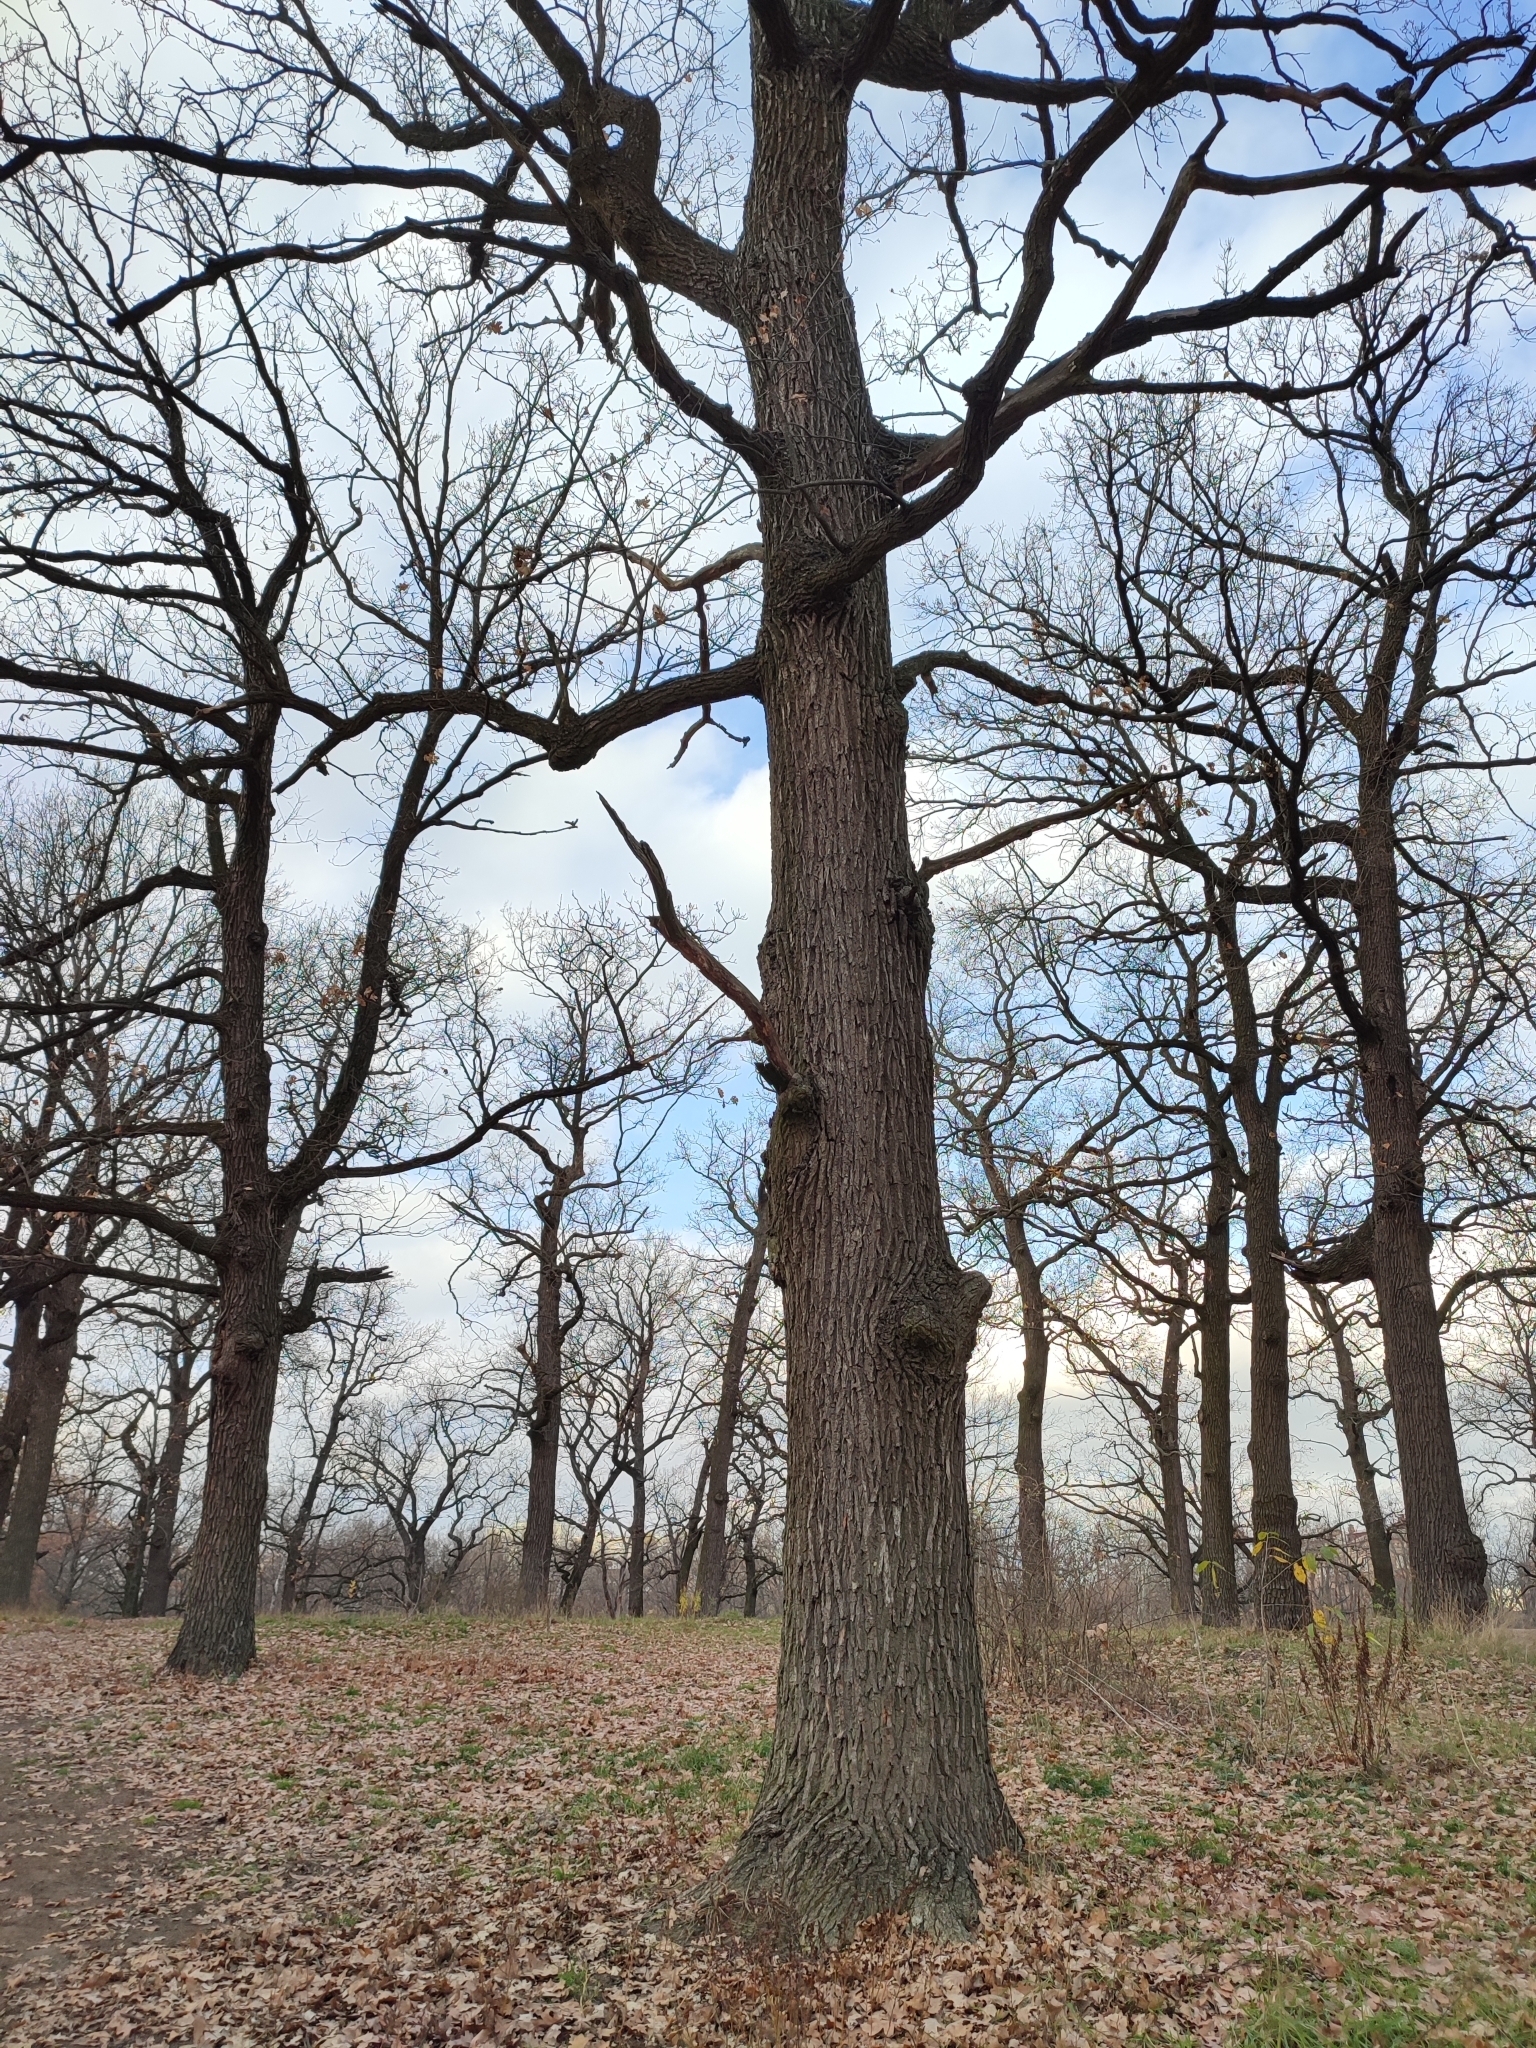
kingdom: Plantae
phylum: Tracheophyta
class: Magnoliopsida
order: Fagales
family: Fagaceae
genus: Quercus
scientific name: Quercus robur
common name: Pedunculate oak
